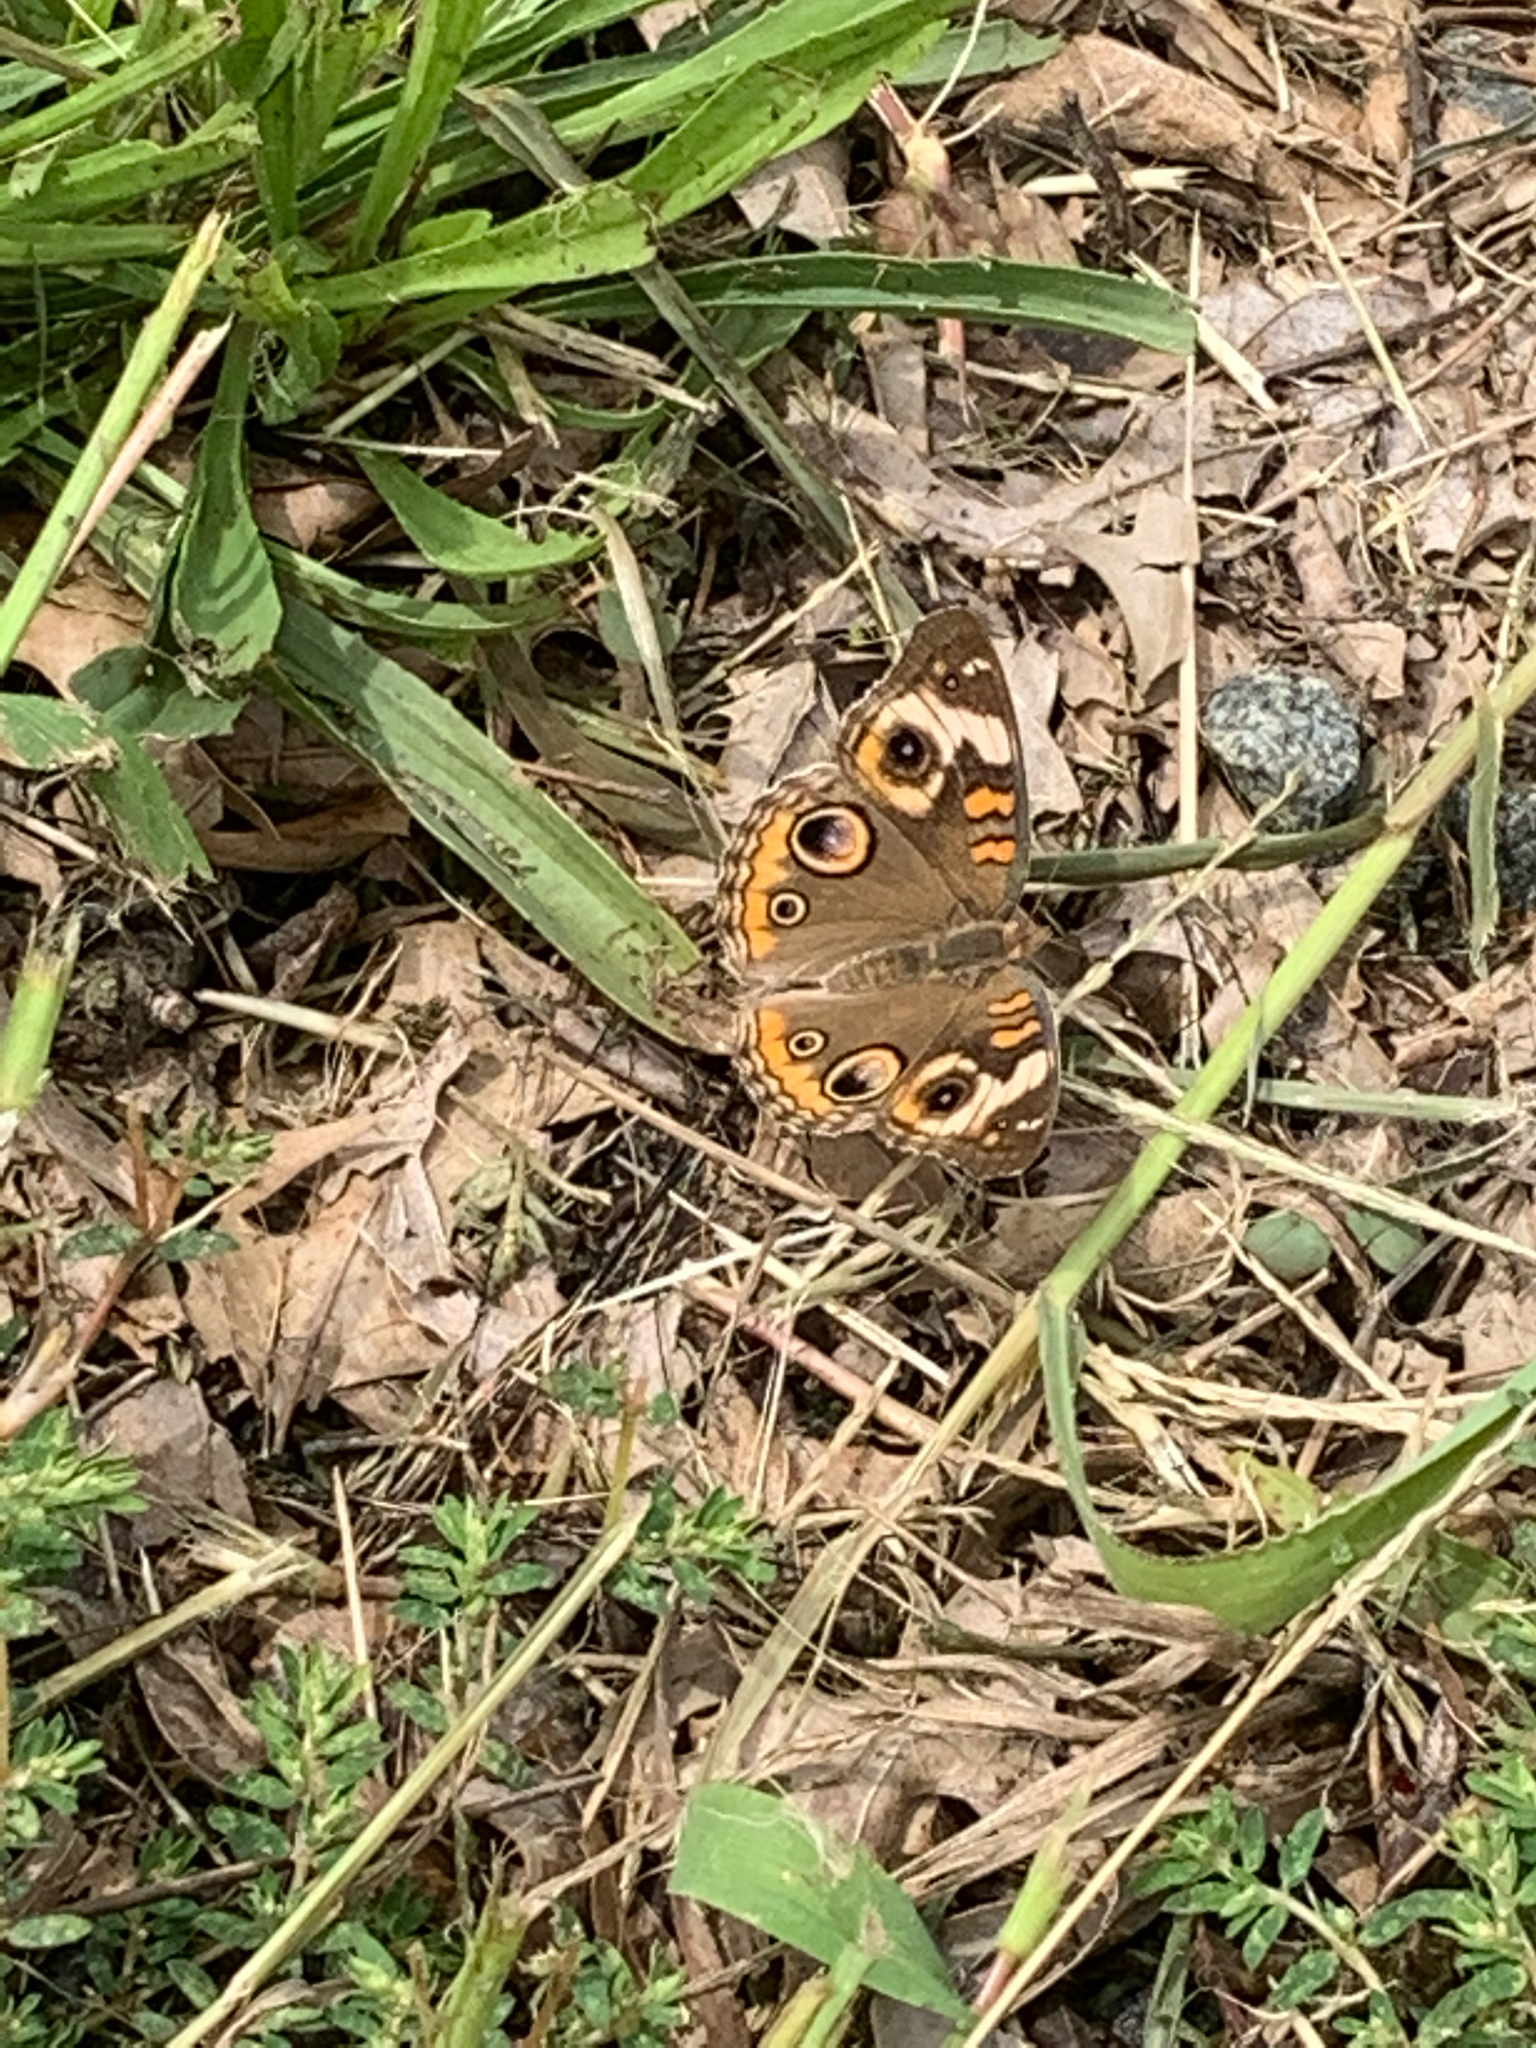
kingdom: Animalia
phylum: Arthropoda
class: Insecta
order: Lepidoptera
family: Nymphalidae
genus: Junonia
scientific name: Junonia coenia
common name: Common buckeye
